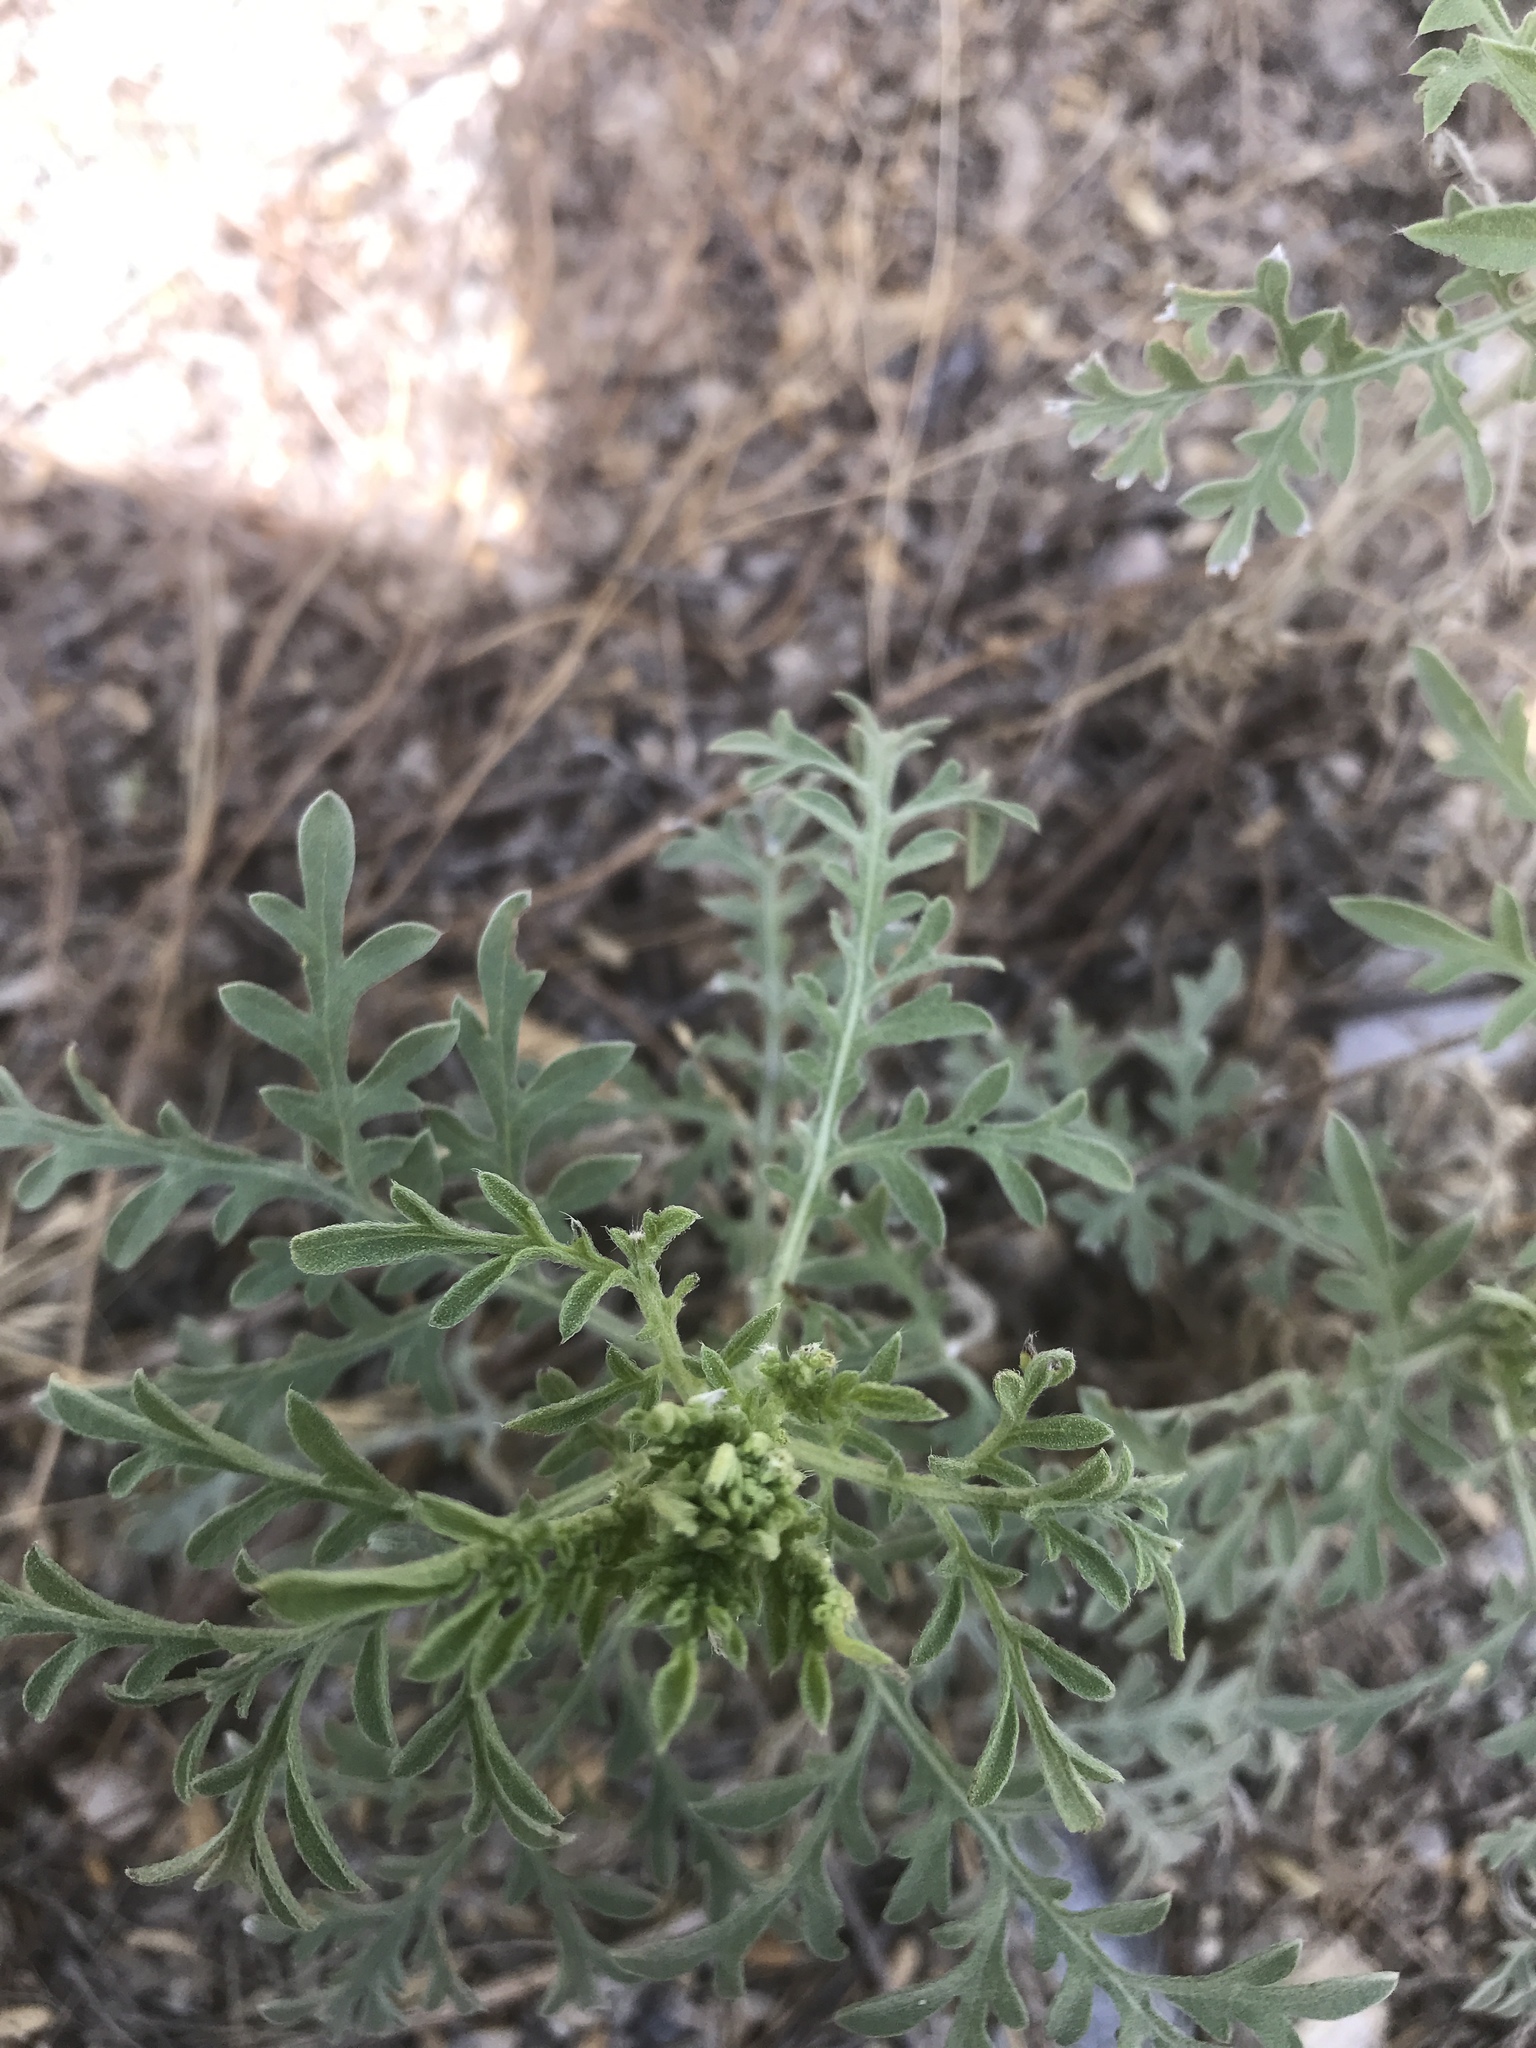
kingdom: Plantae
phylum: Tracheophyta
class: Magnoliopsida
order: Asterales
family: Asteraceae
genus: Ambrosia
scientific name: Ambrosia confertiflora
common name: Bur ragweed
